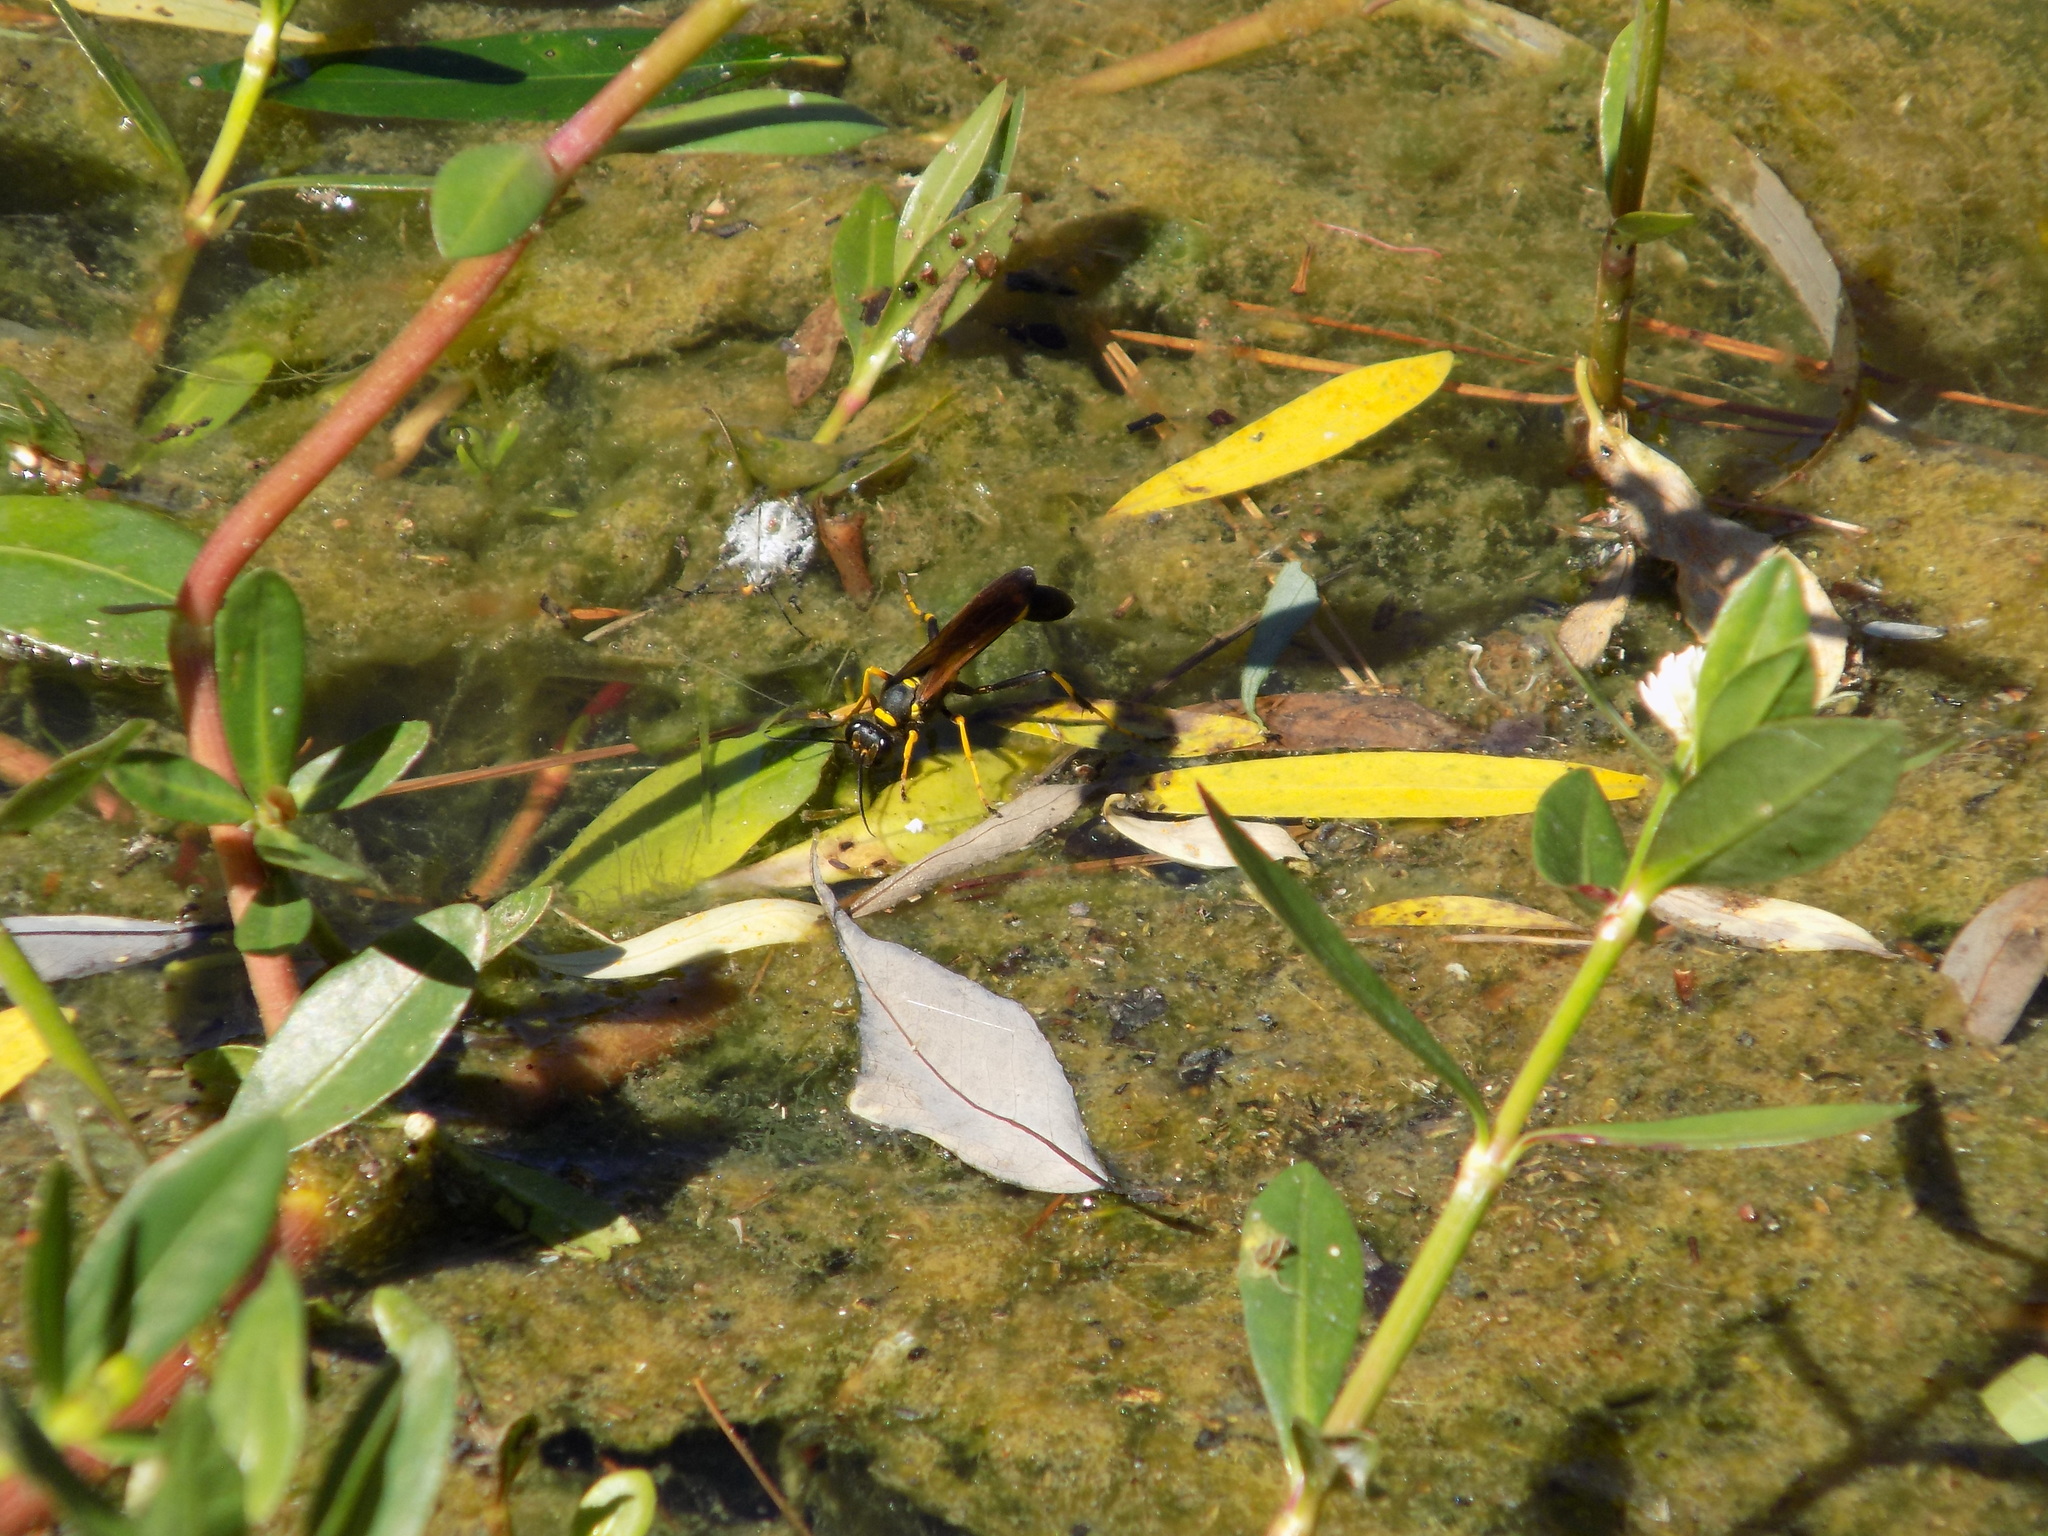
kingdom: Animalia
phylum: Arthropoda
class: Insecta
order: Hymenoptera
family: Sphecidae
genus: Sceliphron
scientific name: Sceliphron caementarium
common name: Mud dauber
